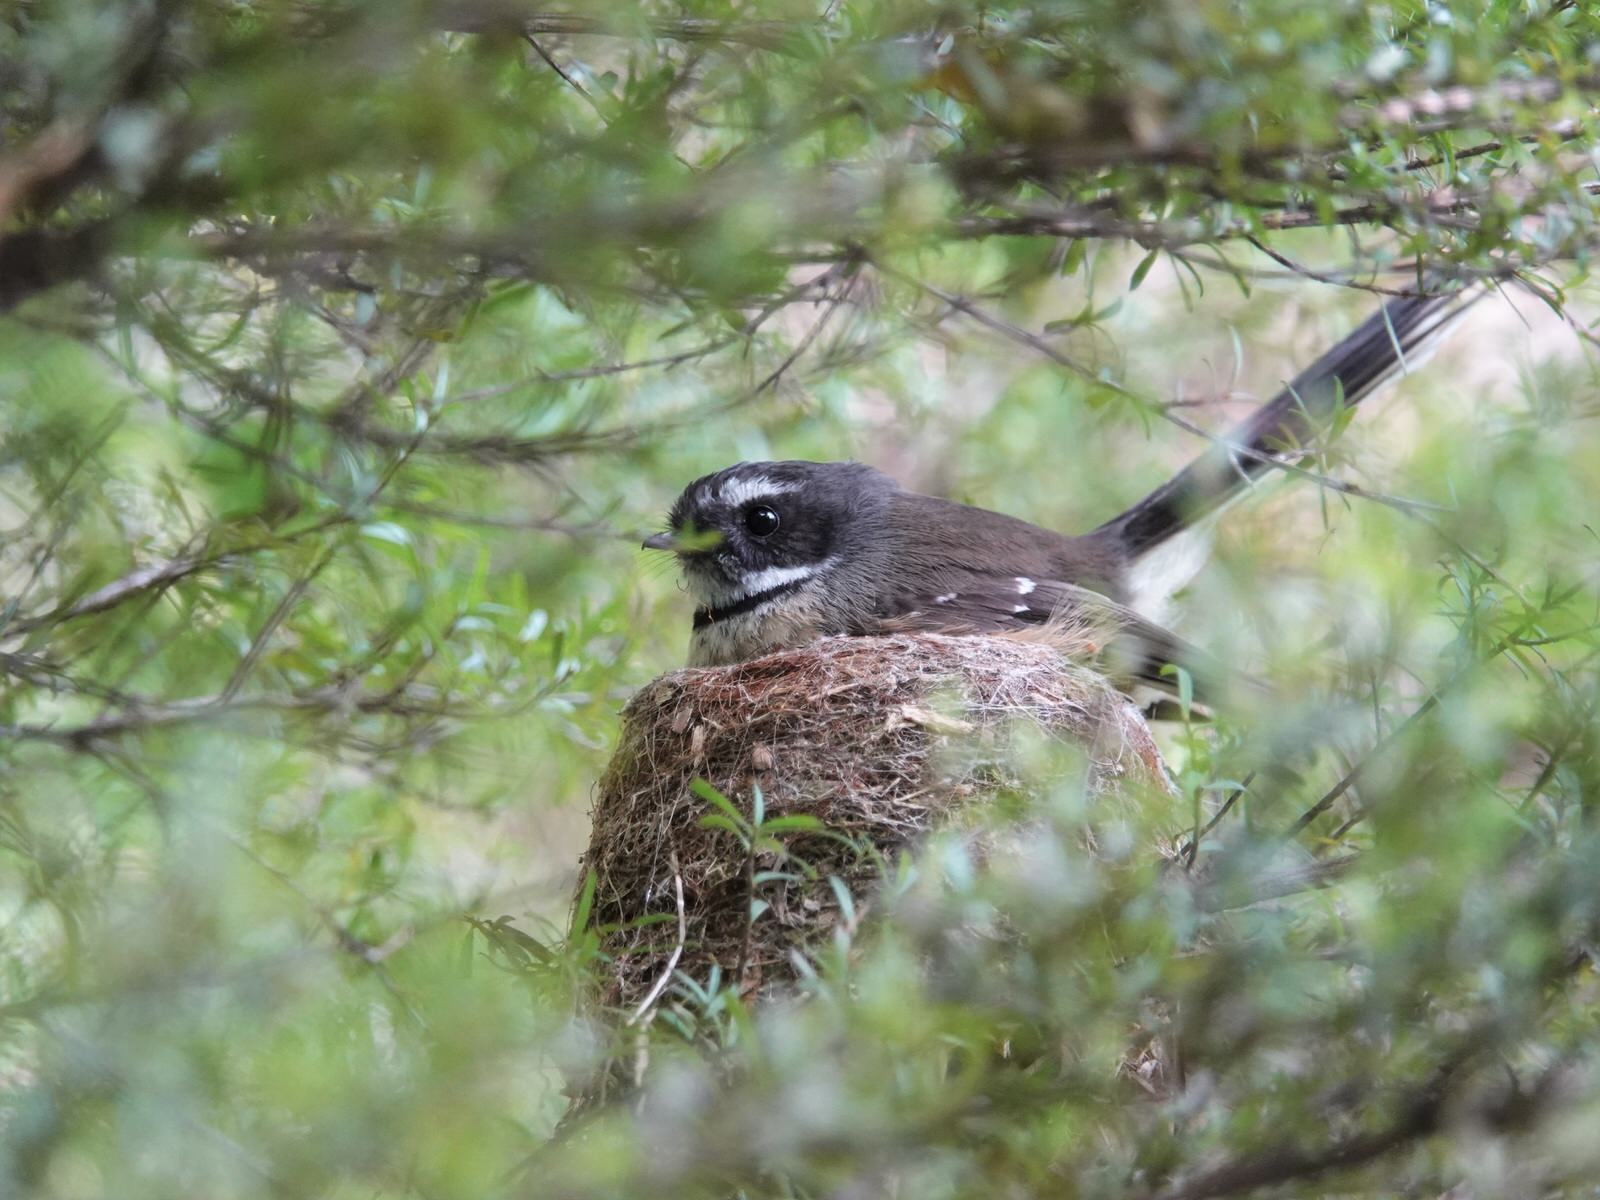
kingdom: Animalia
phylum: Chordata
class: Aves
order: Passeriformes
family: Rhipiduridae
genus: Rhipidura
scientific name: Rhipidura fuliginosa
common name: New zealand fantail
